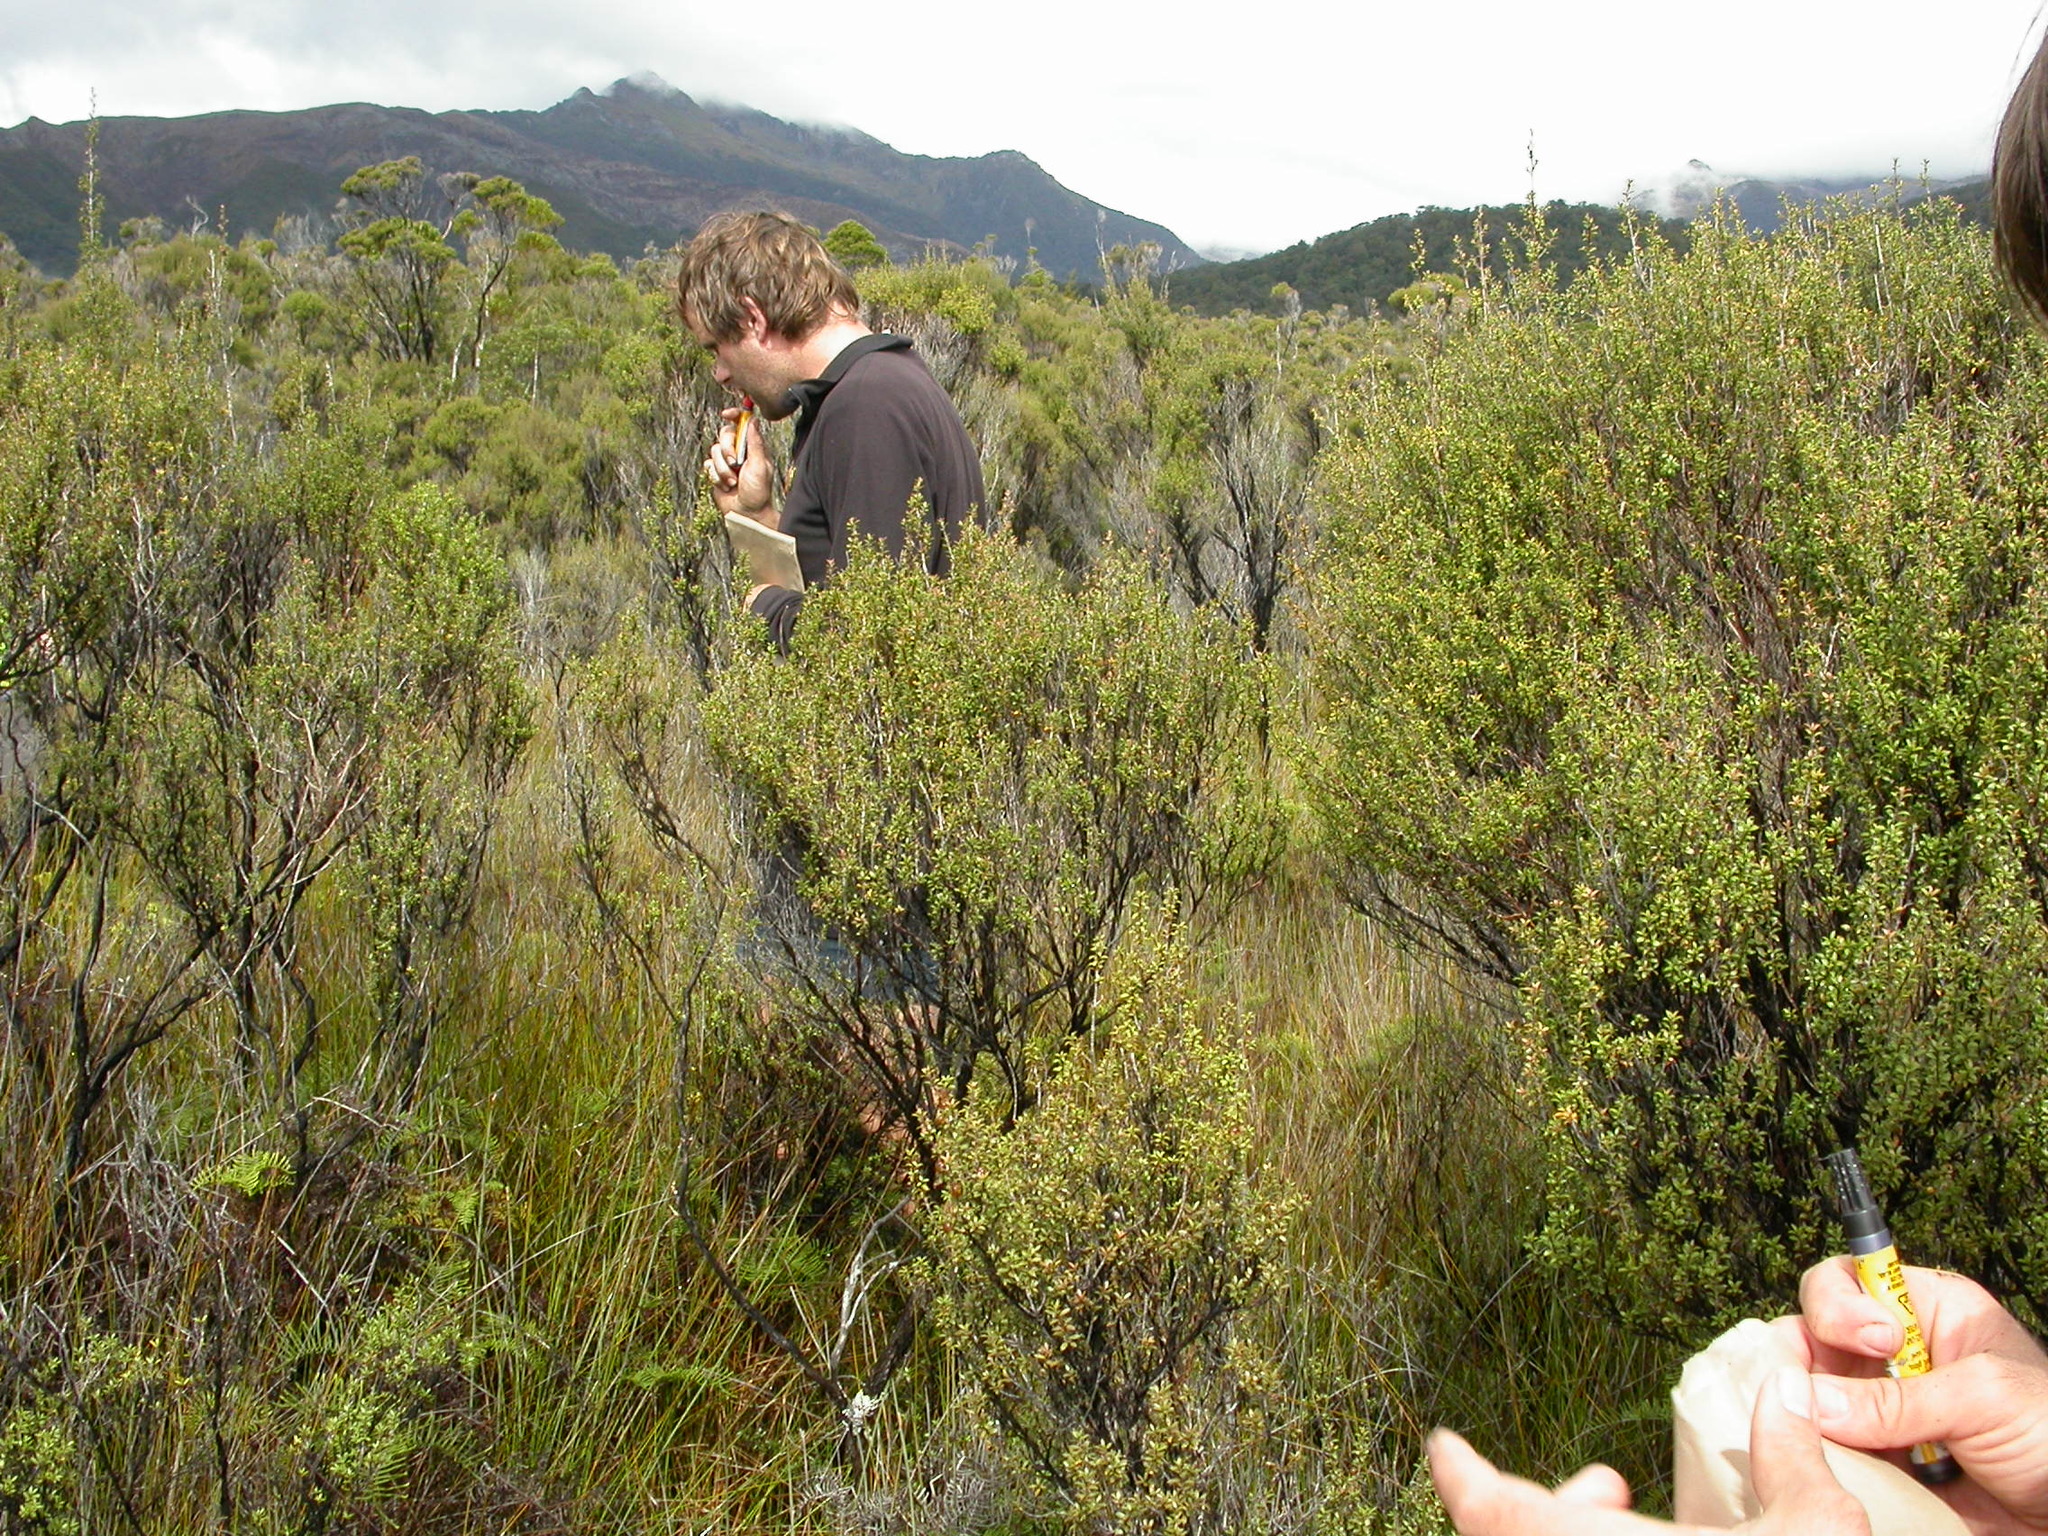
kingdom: Plantae
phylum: Tracheophyta
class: Magnoliopsida
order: Myrtales
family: Myrtaceae
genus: Leptospermum
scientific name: Leptospermum scoparium
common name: Broom tea-tree
